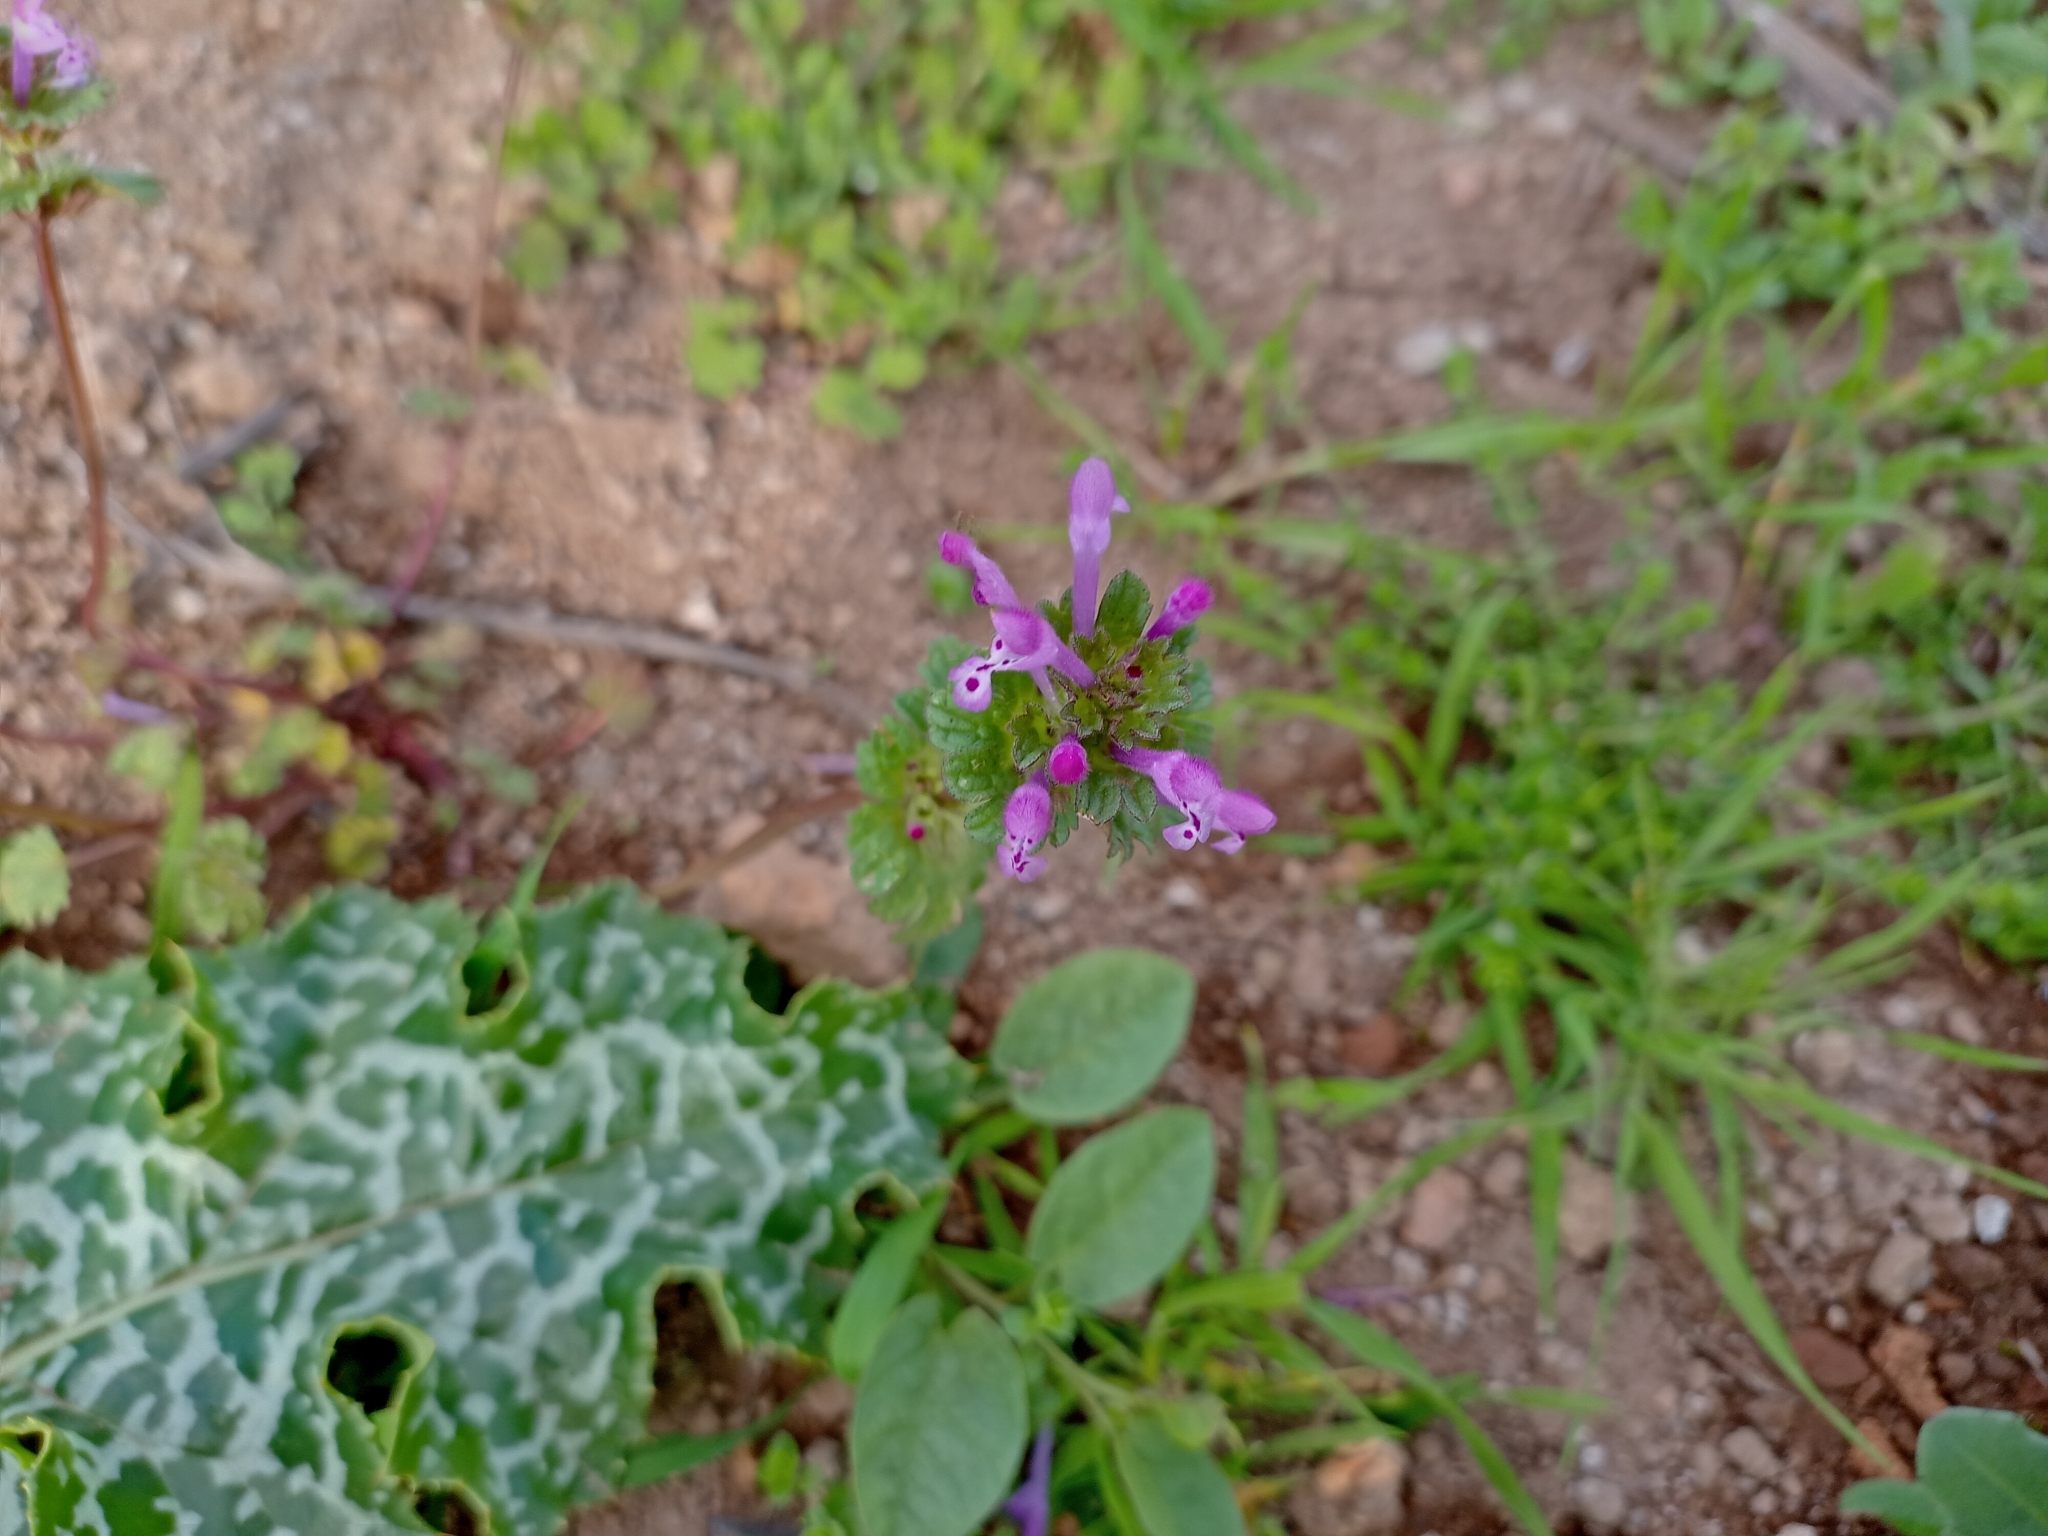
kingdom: Plantae
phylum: Tracheophyta
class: Magnoliopsida
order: Lamiales
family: Lamiaceae
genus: Lamium
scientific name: Lamium amplexicaule
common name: Henbit dead-nettle
